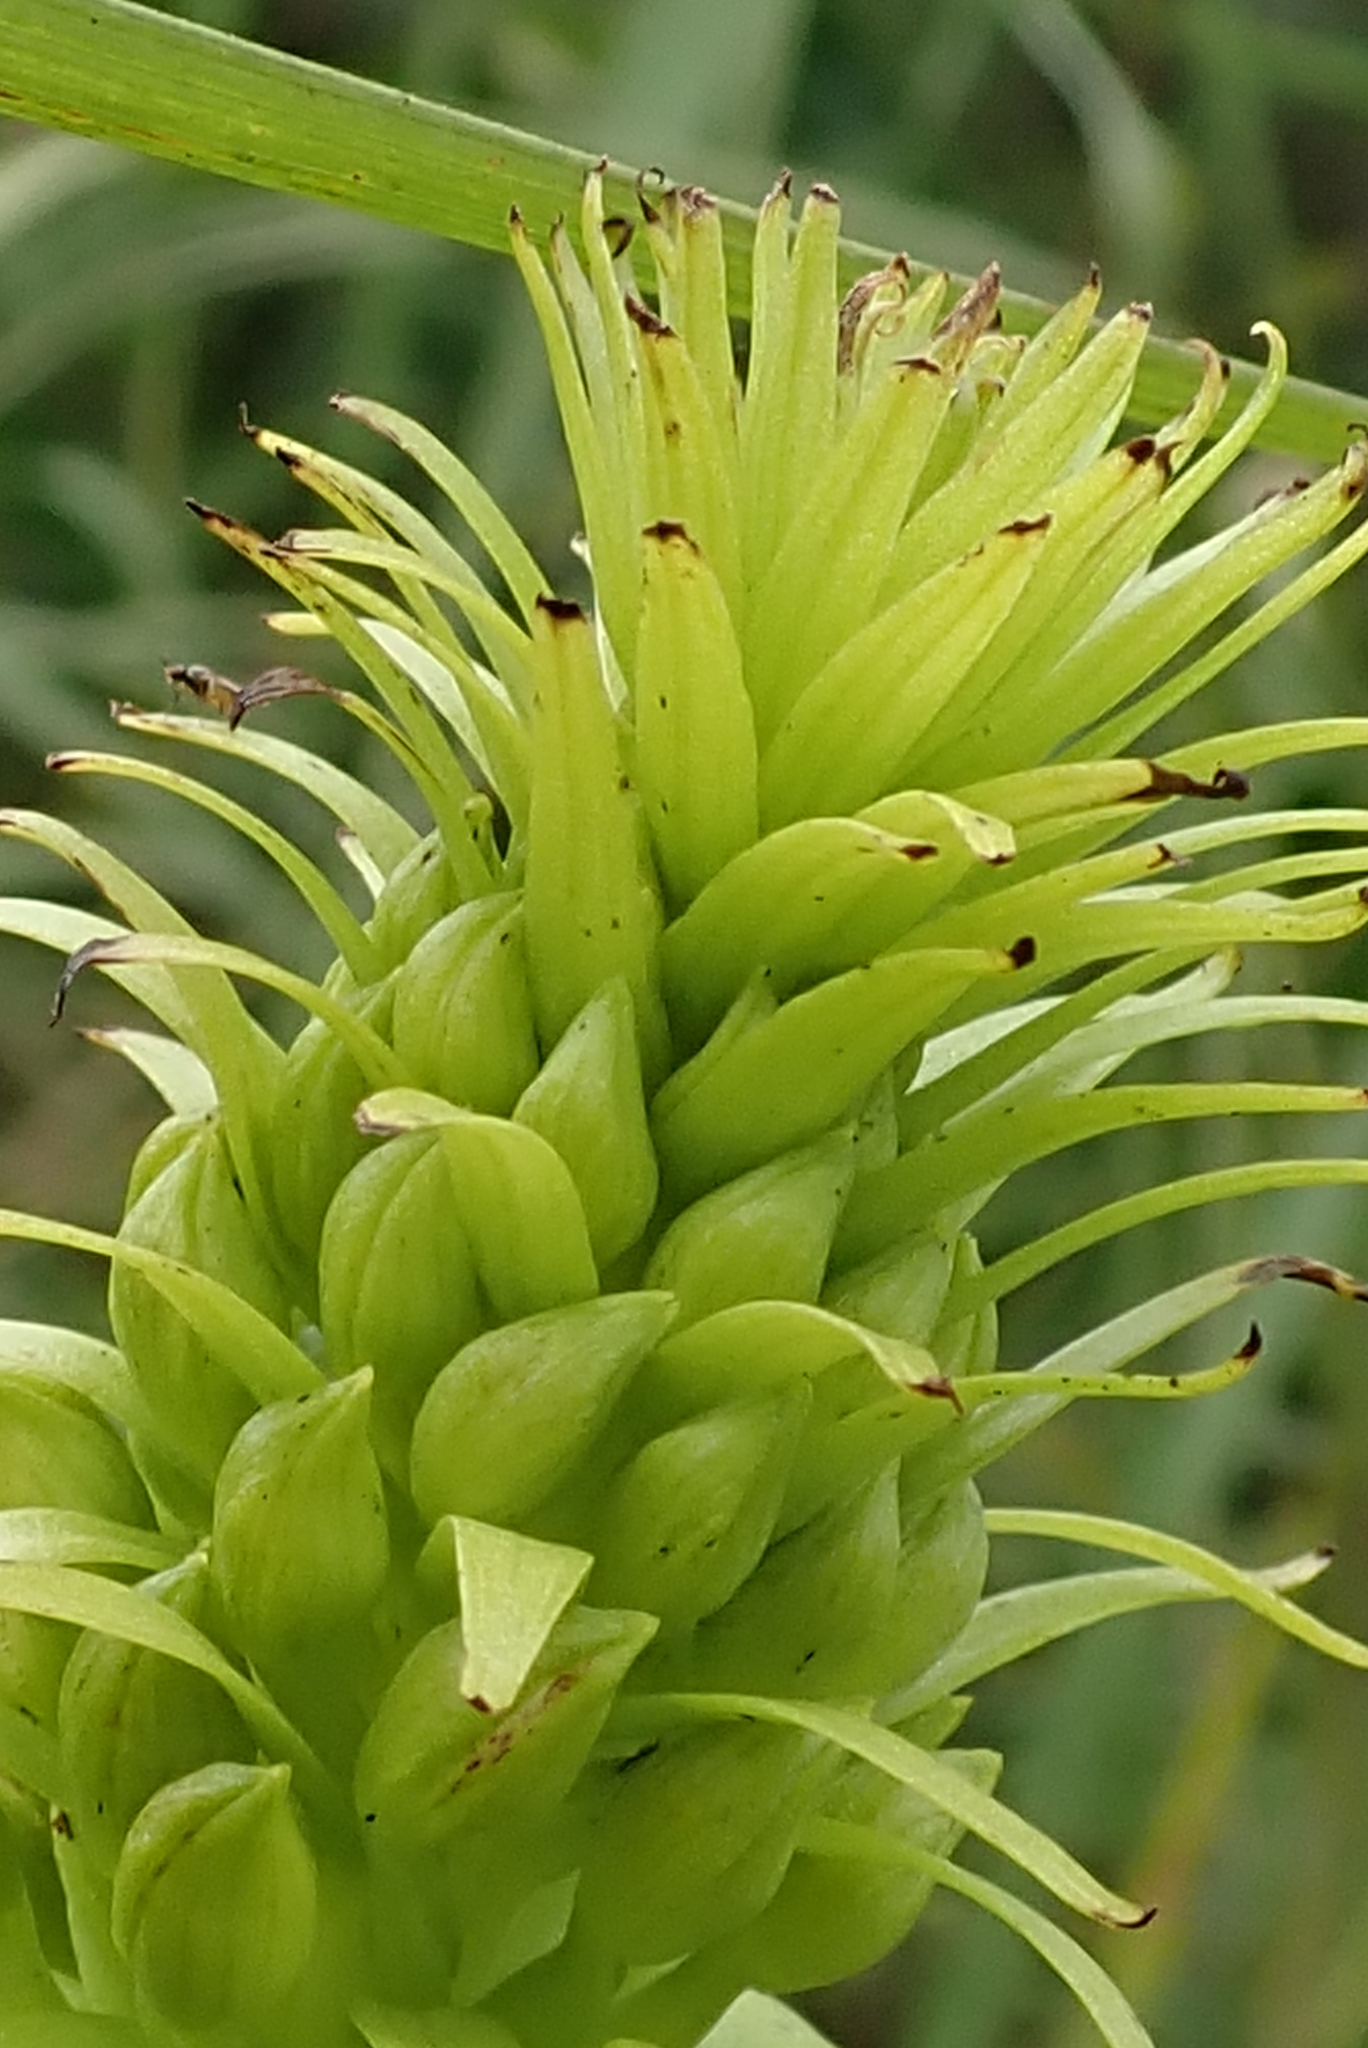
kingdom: Plantae
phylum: Tracheophyta
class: Liliopsida
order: Asparagales
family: Orchidaceae
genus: Pterygodium
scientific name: Pterygodium magnum
